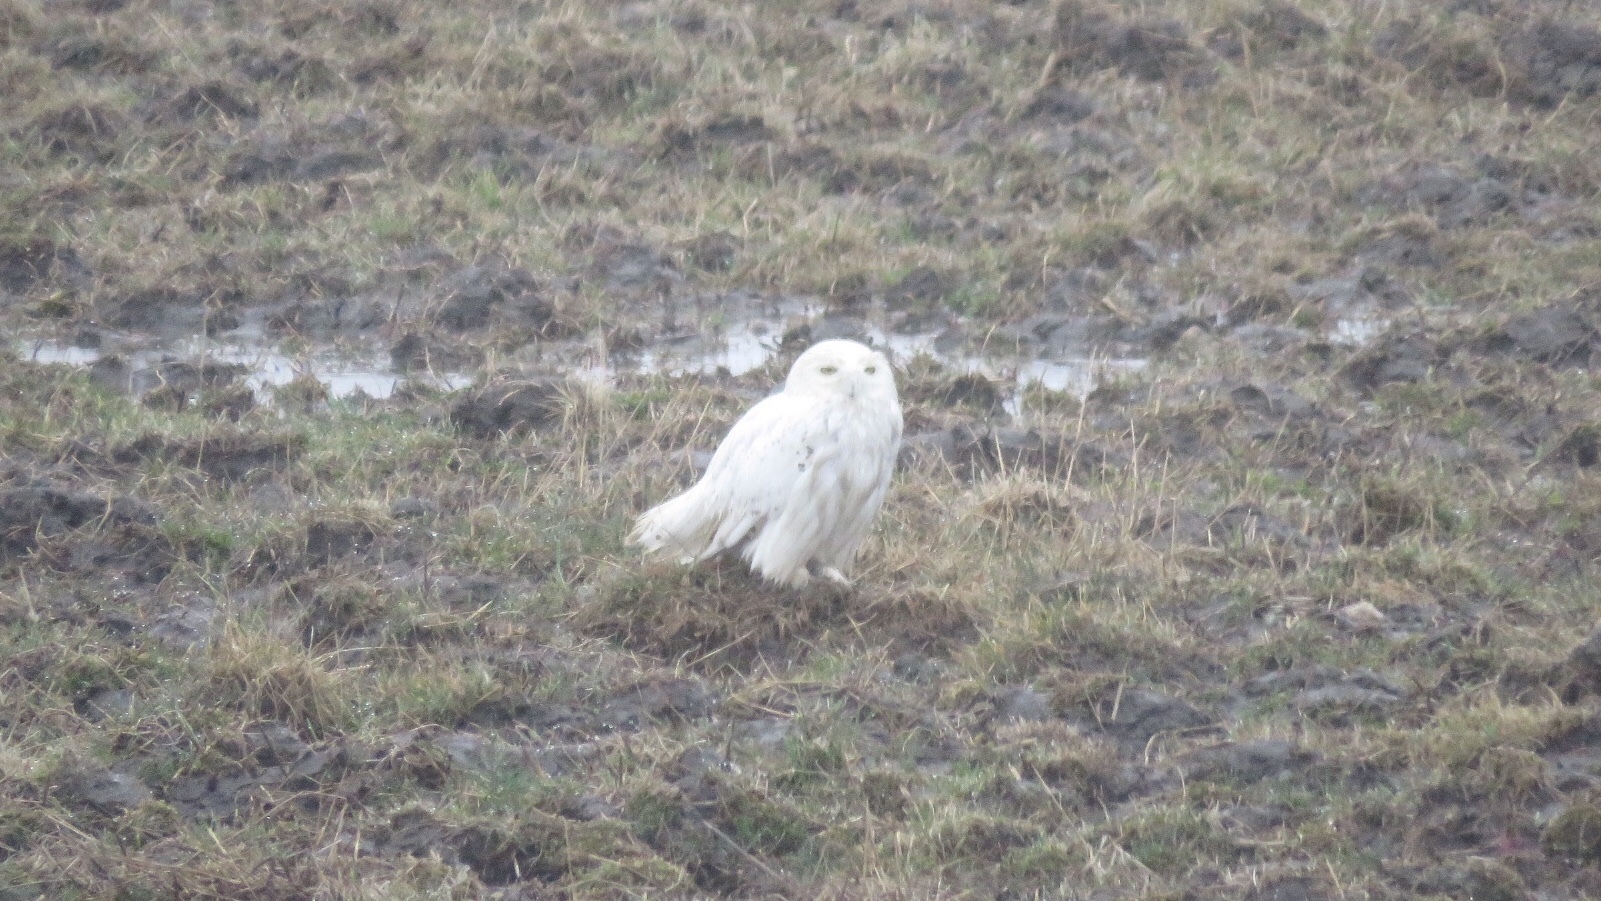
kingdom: Animalia
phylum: Chordata
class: Aves
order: Strigiformes
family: Strigidae
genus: Bubo
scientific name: Bubo scandiacus
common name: Snowy owl
